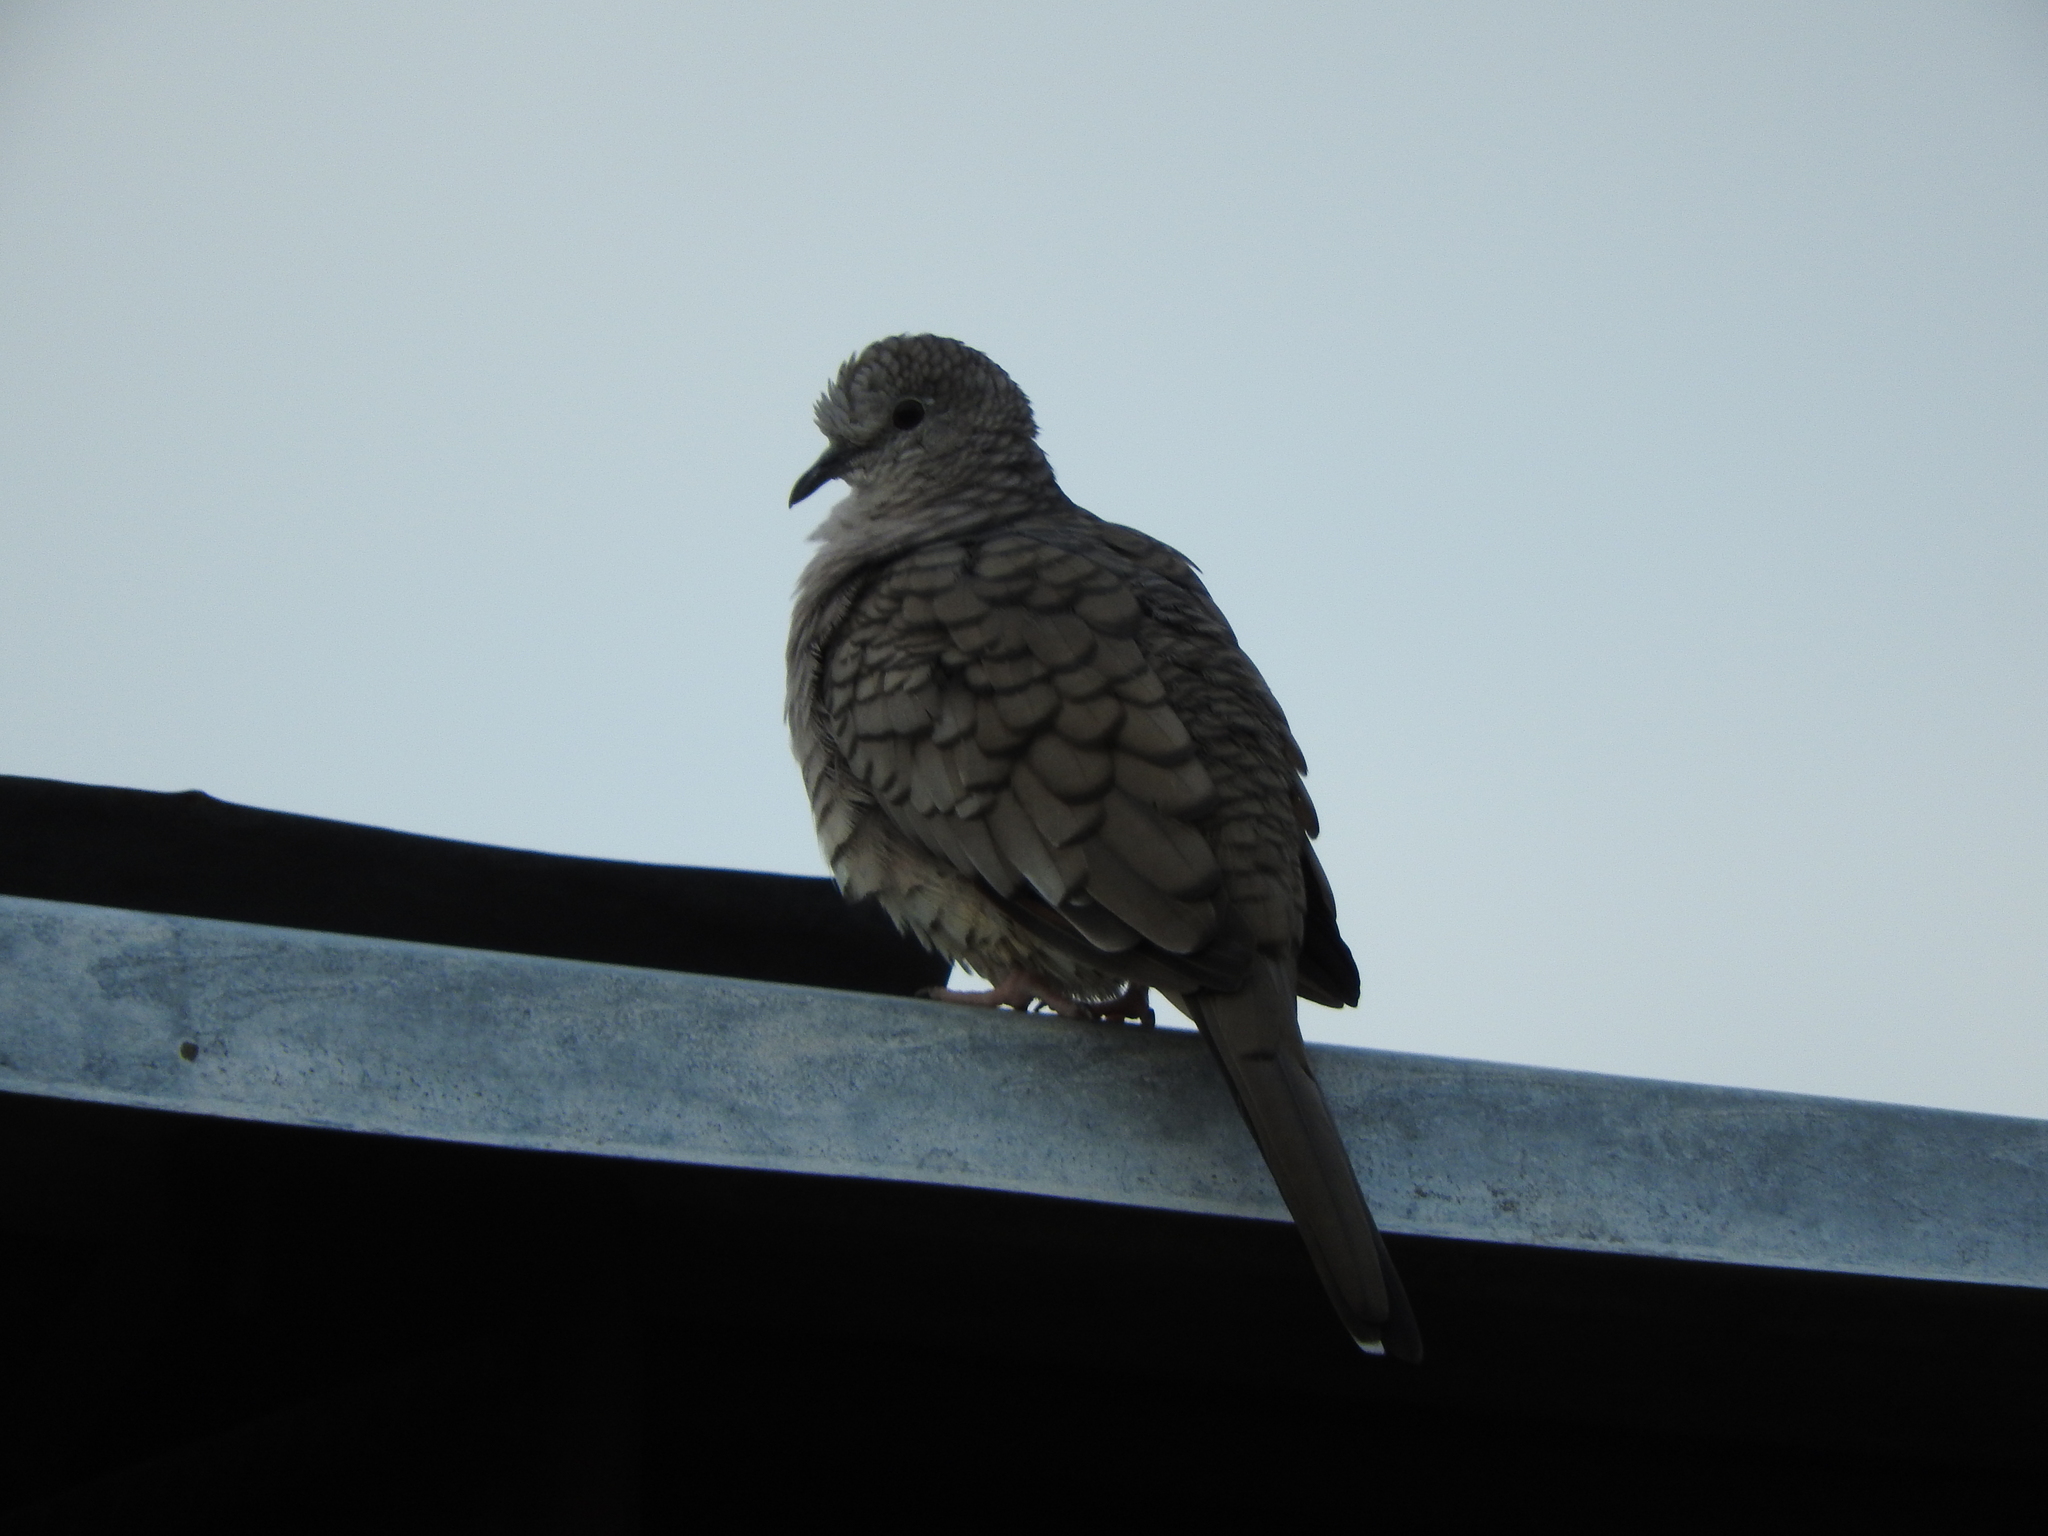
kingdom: Animalia
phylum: Chordata
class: Aves
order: Columbiformes
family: Columbidae
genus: Columbina
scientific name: Columbina inca
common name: Inca dove
